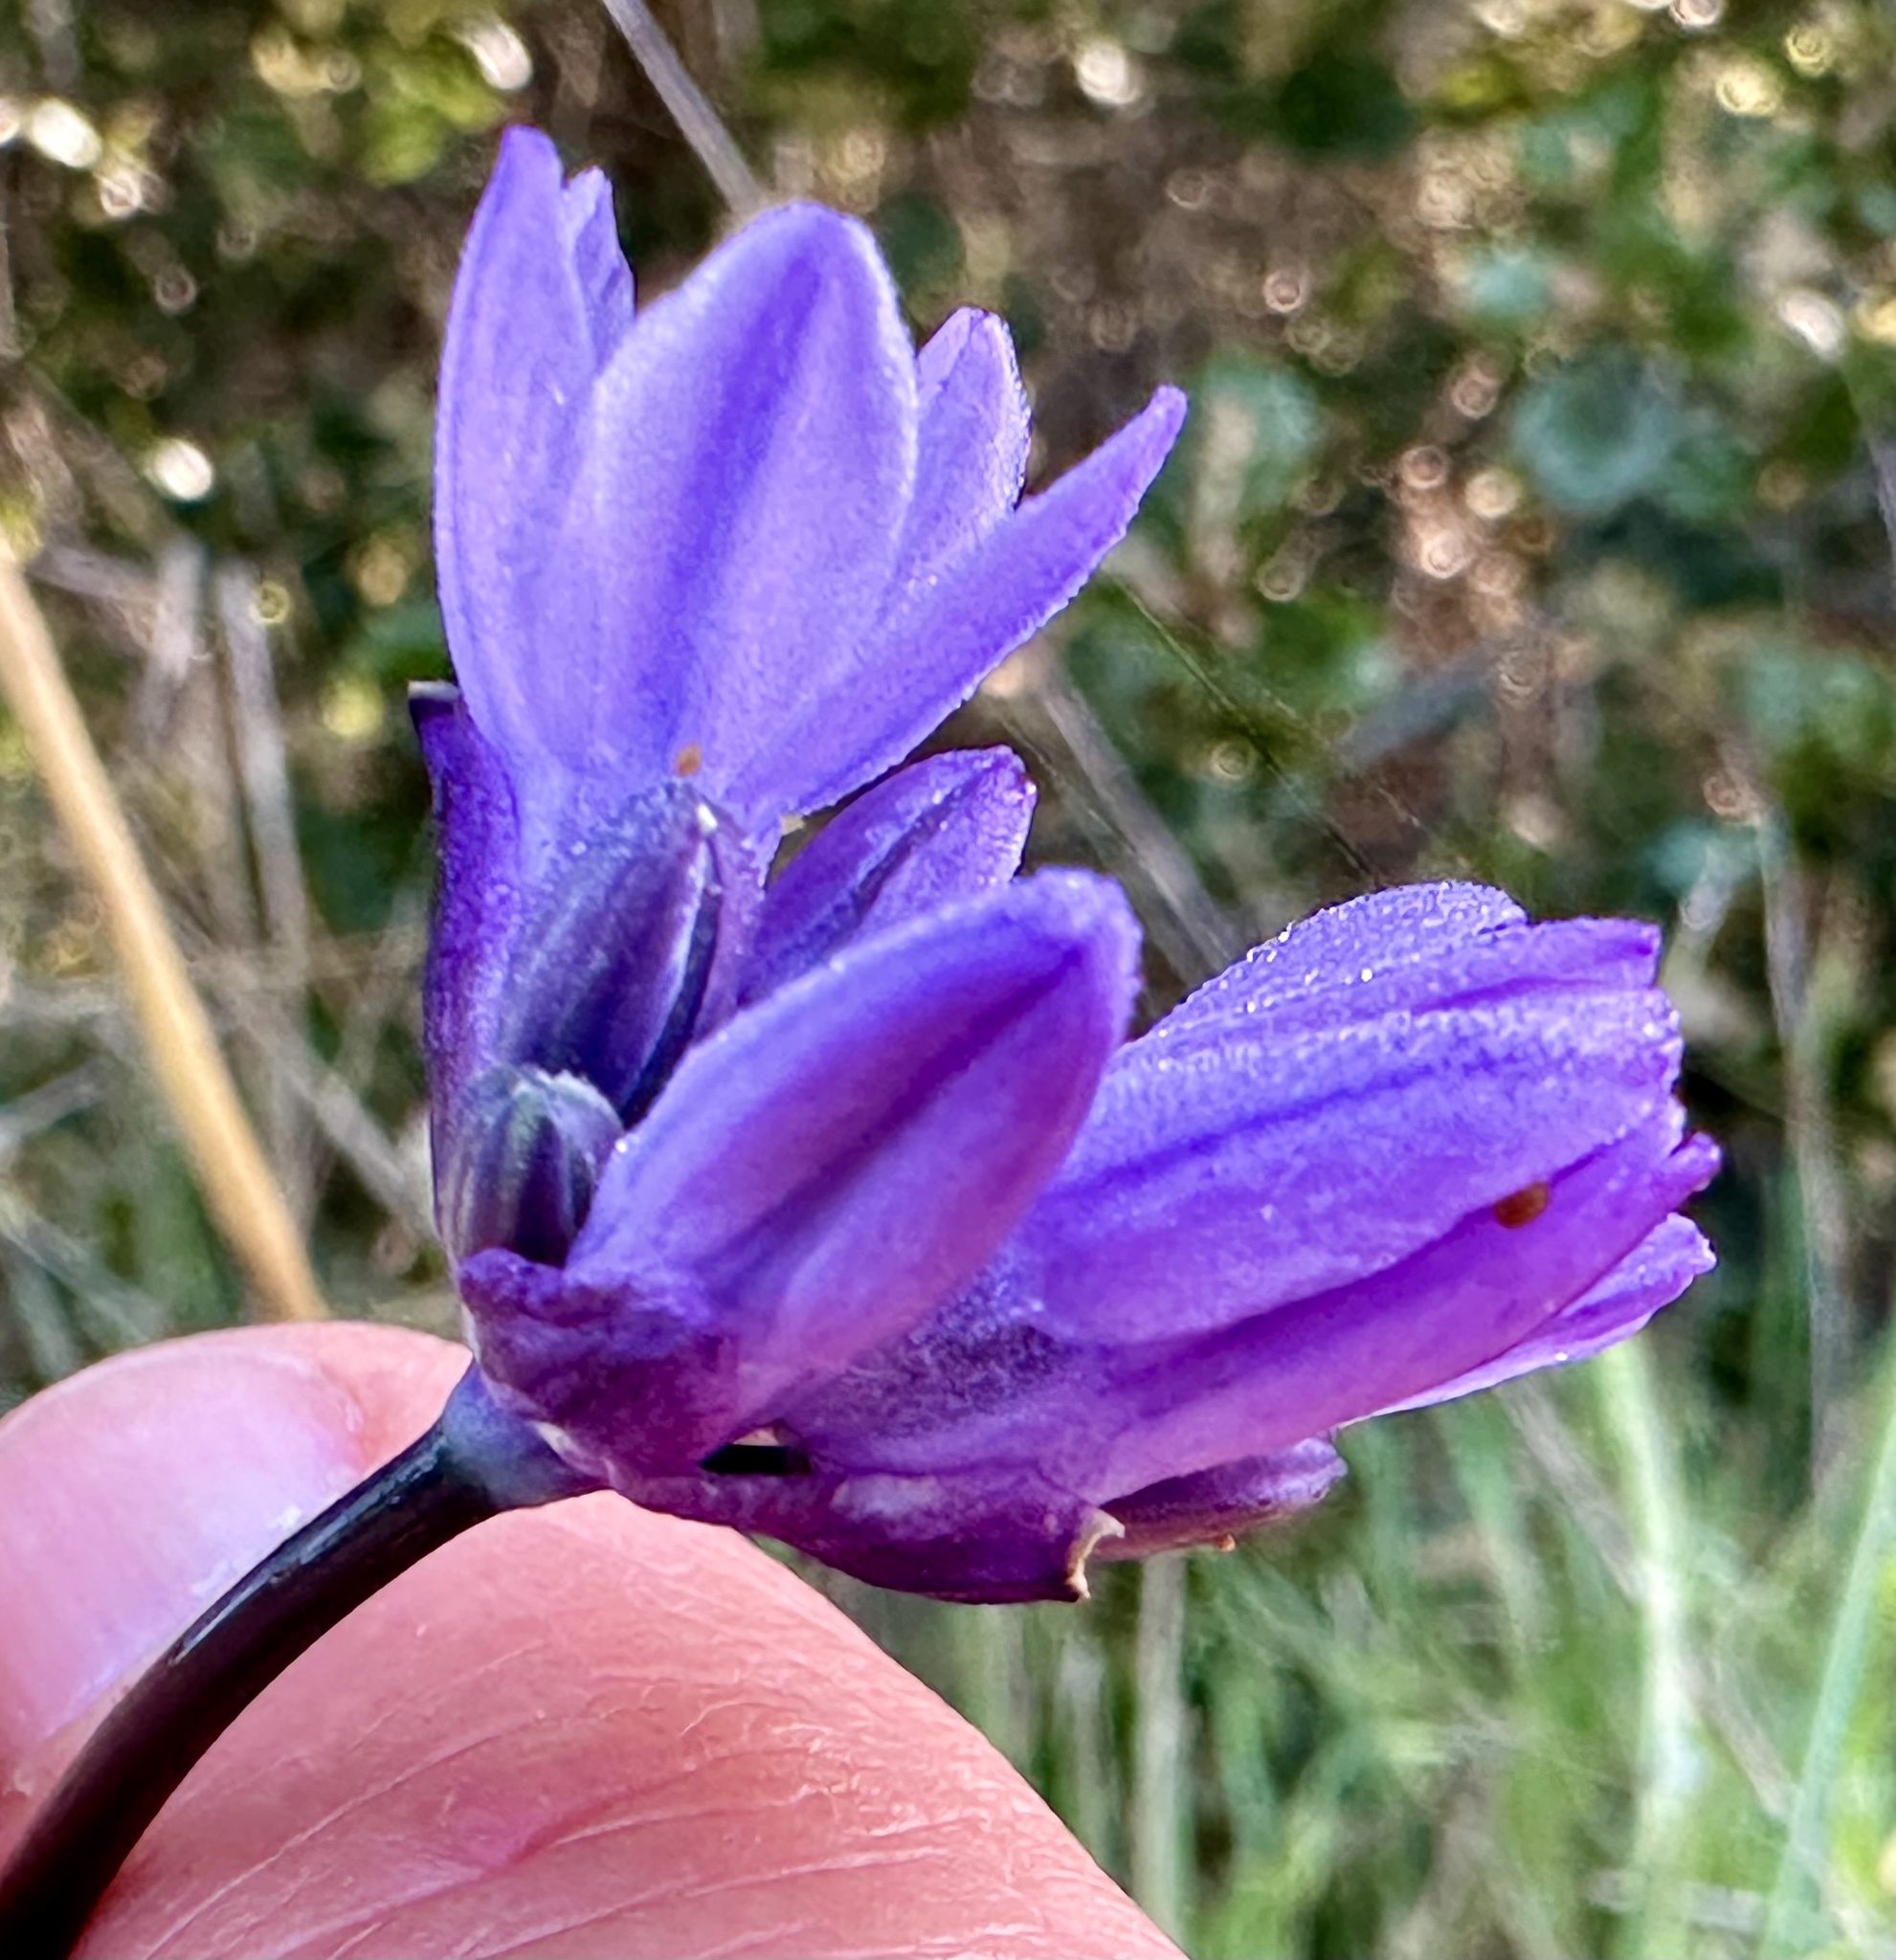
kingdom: Plantae
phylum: Tracheophyta
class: Liliopsida
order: Asparagales
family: Asparagaceae
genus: Dipterostemon
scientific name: Dipterostemon capitatus
